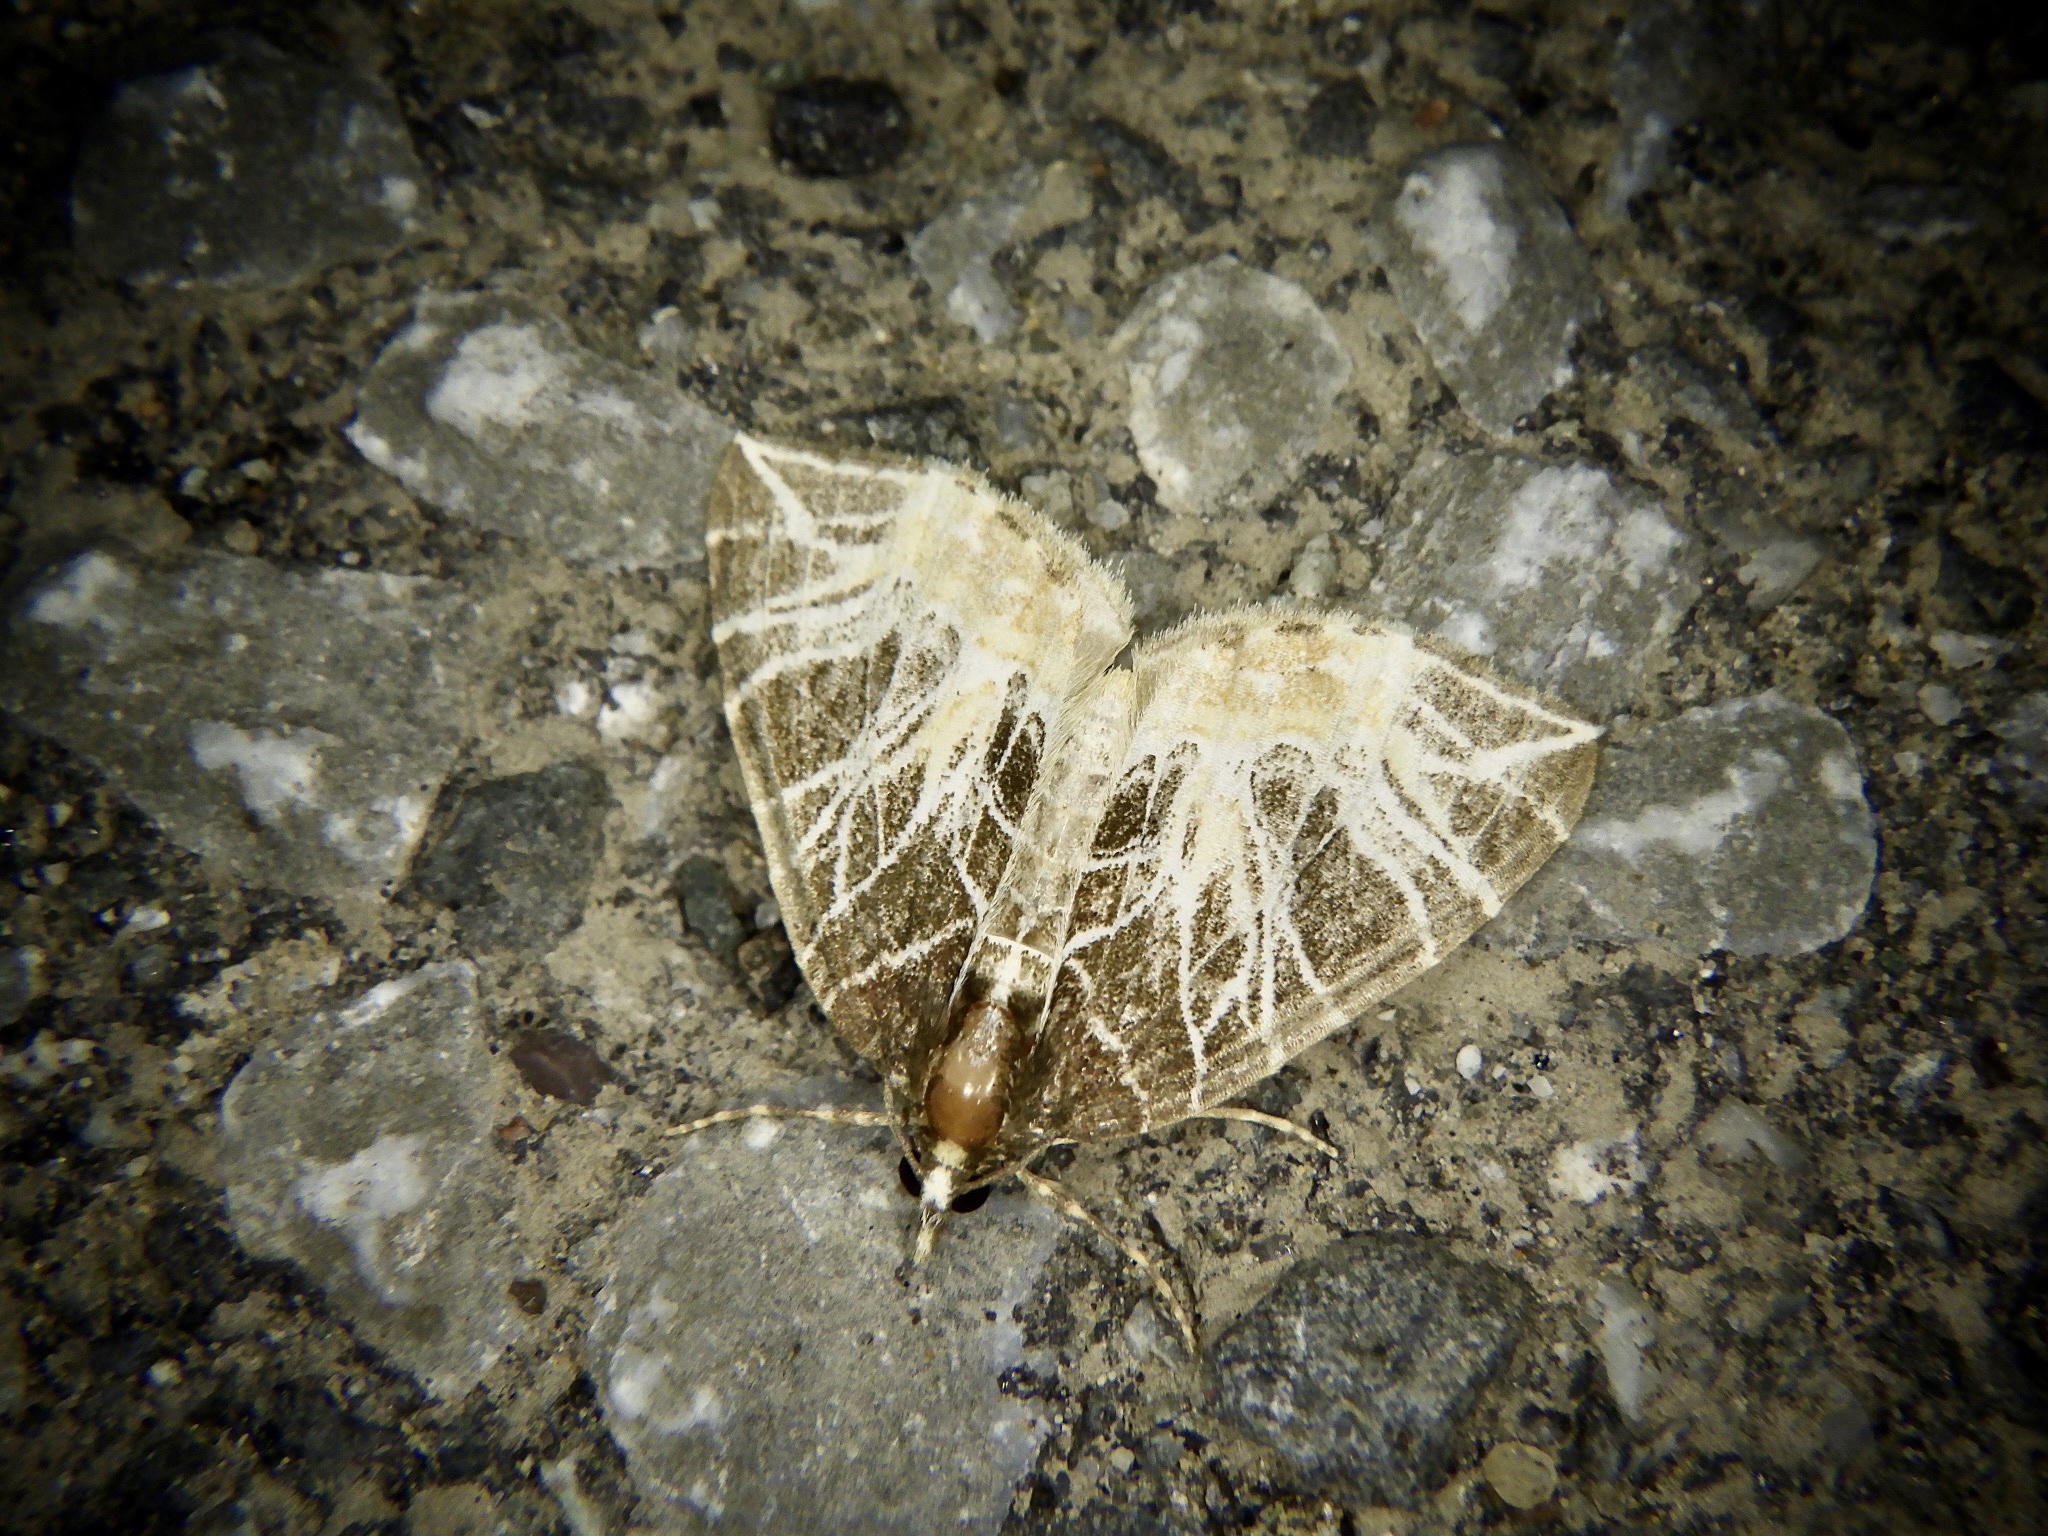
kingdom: Animalia
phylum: Arthropoda
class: Insecta
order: Lepidoptera
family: Geometridae
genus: Evecliptopera
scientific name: Evecliptopera illitata
